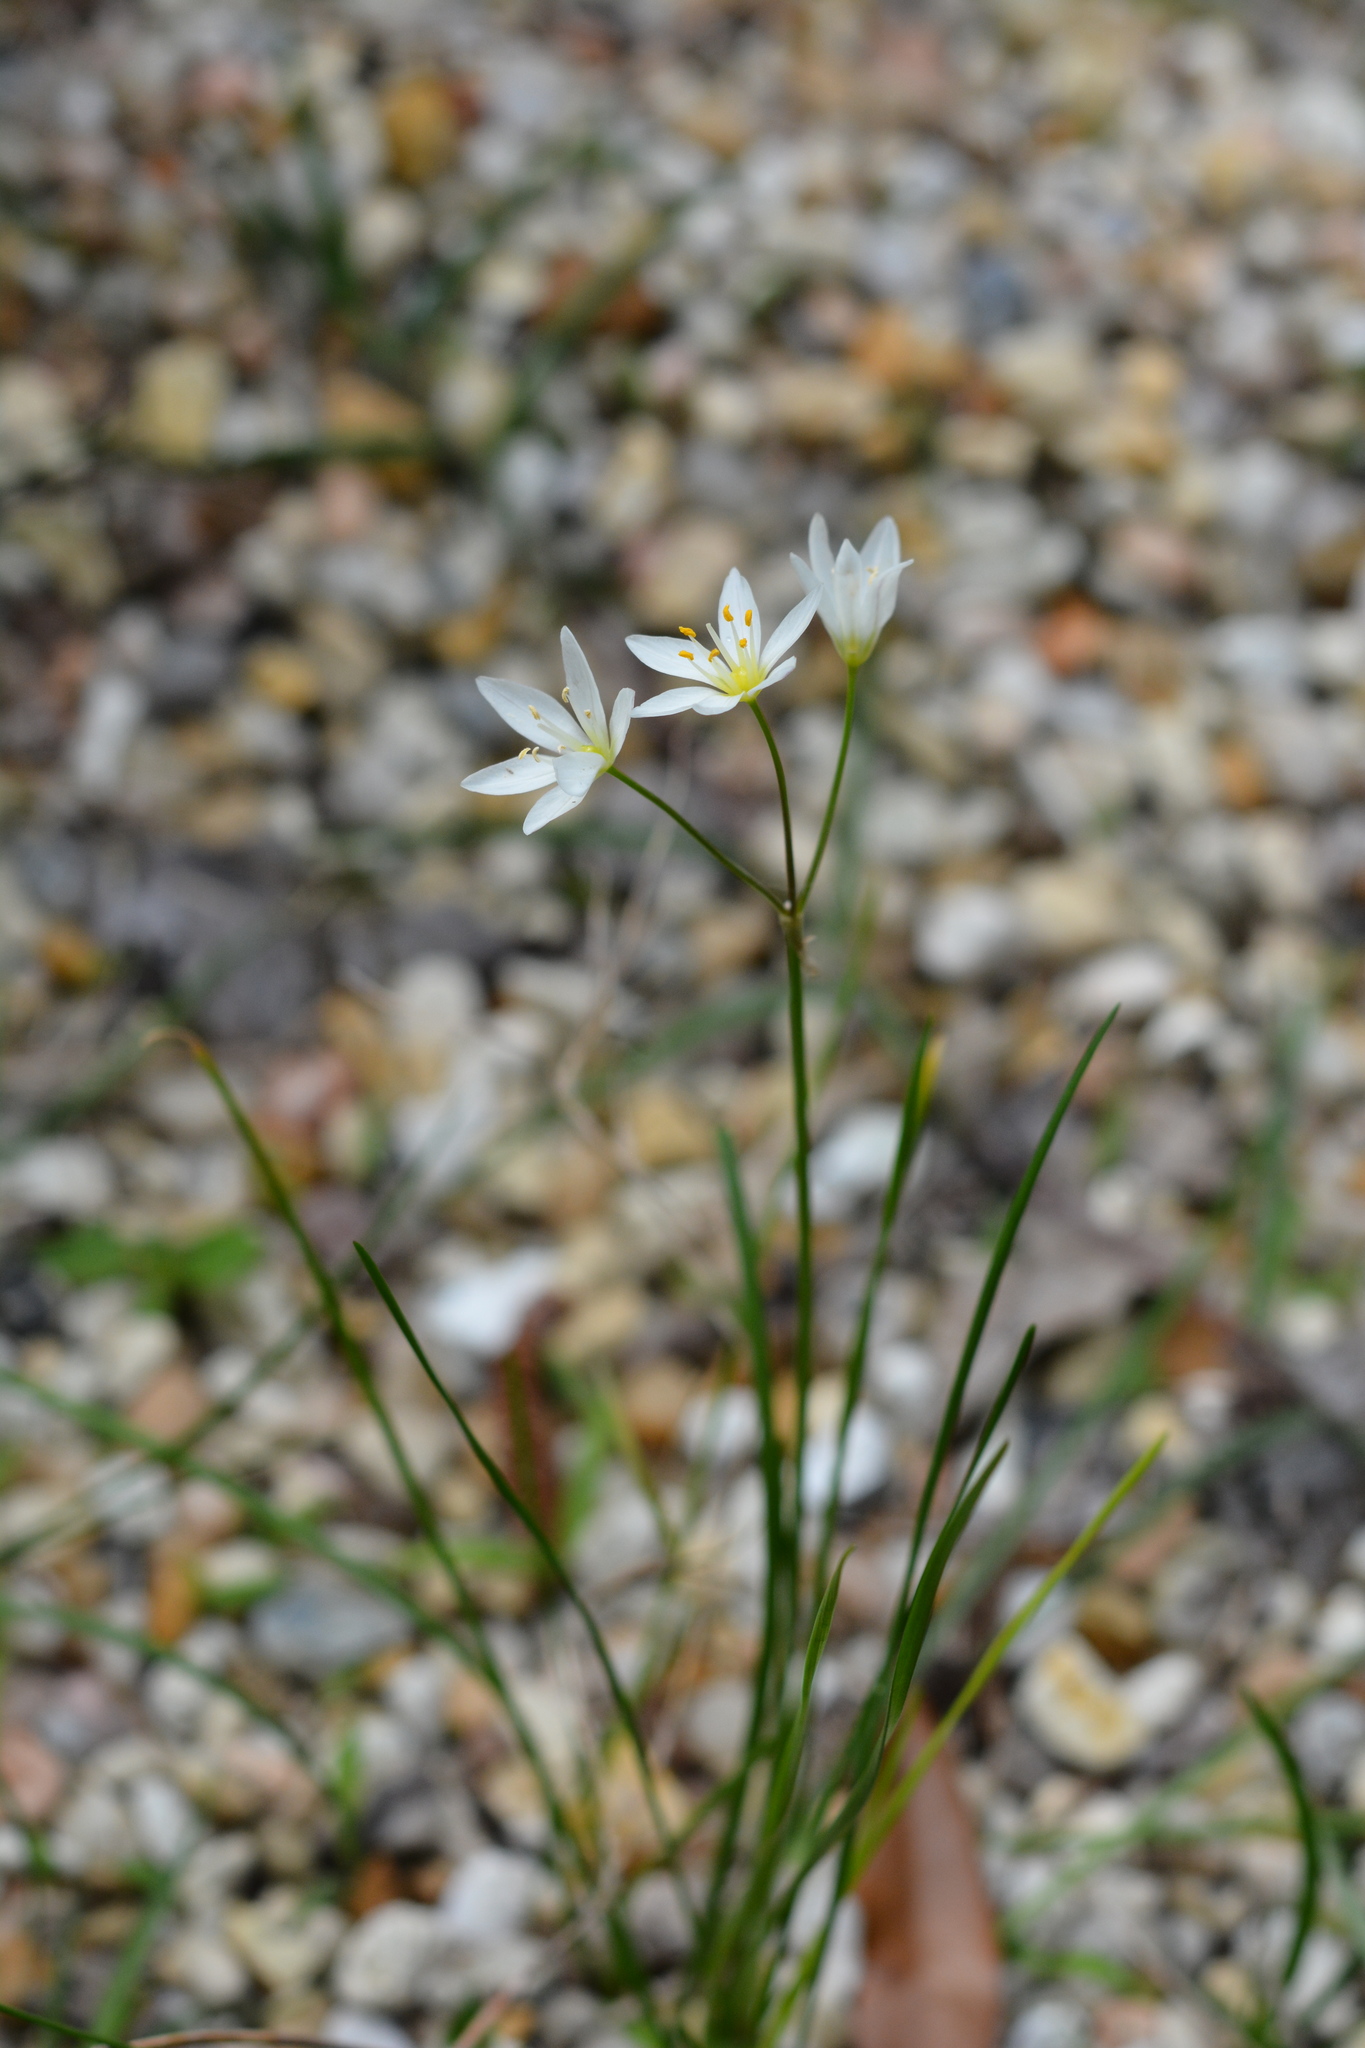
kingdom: Plantae
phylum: Tracheophyta
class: Liliopsida
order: Asparagales
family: Amaryllidaceae
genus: Nothoscordum
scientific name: Nothoscordum bivalve
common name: Crow-poison
